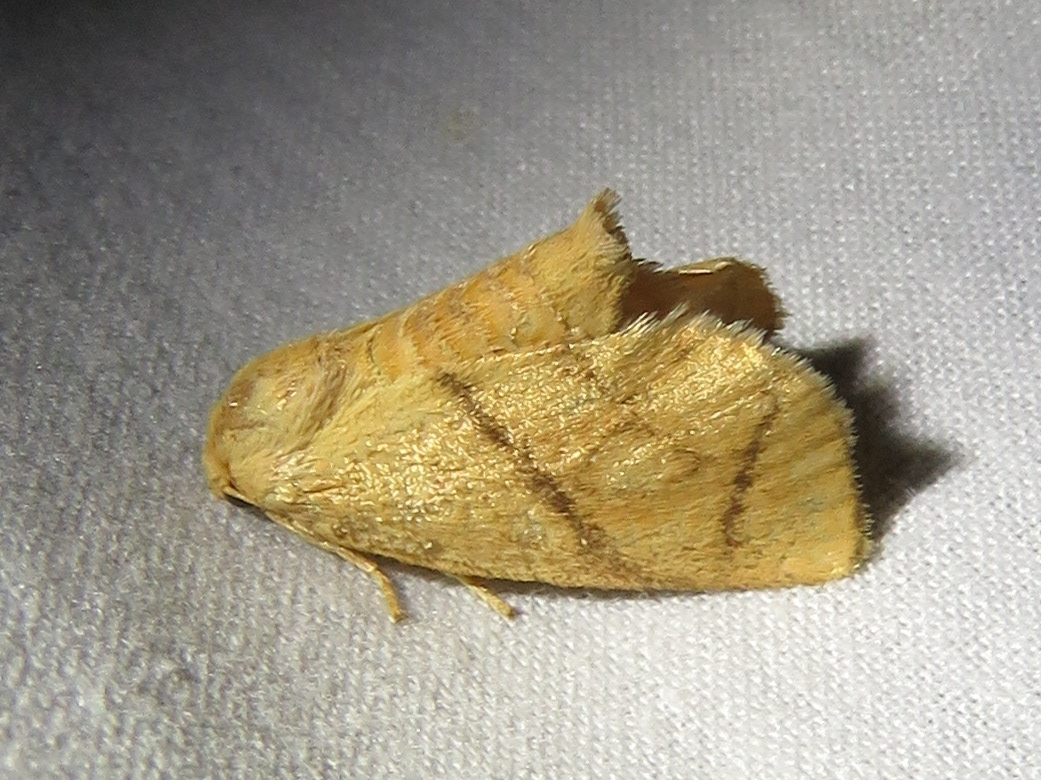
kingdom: Animalia
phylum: Arthropoda
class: Insecta
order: Lepidoptera
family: Limacodidae
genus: Apoda
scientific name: Apoda y-inversa
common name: Yellow-collared slug moth
